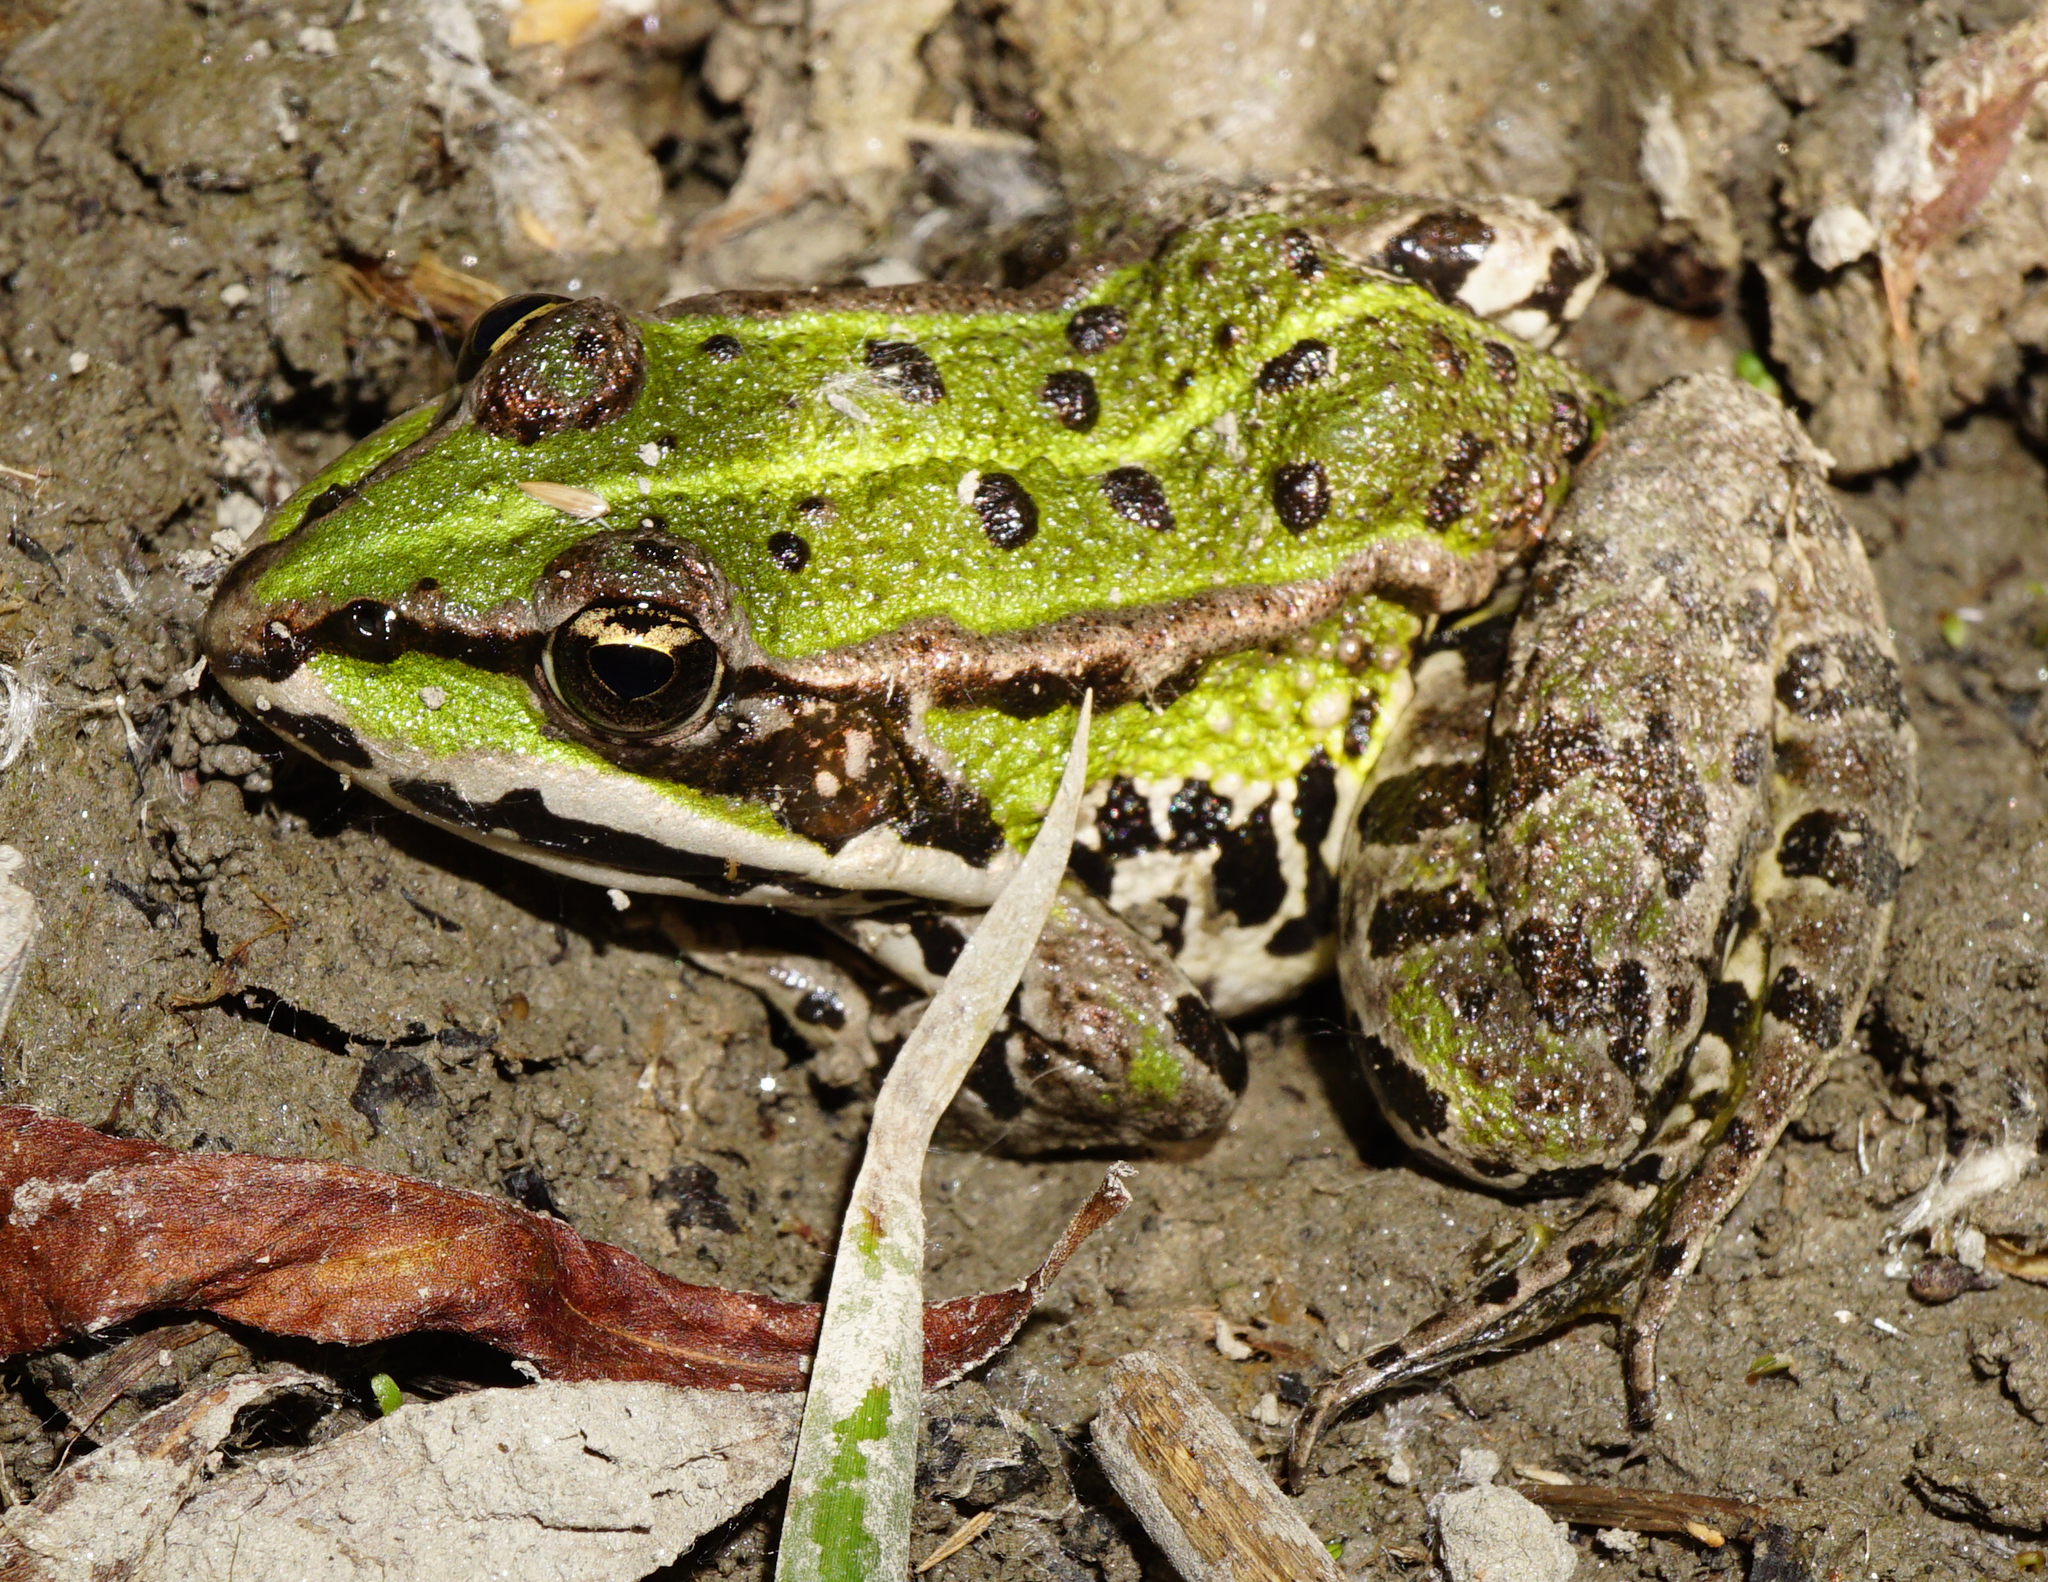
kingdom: Animalia
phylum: Chordata
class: Amphibia
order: Anura
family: Ranidae
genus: Pelophylax
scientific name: Pelophylax
